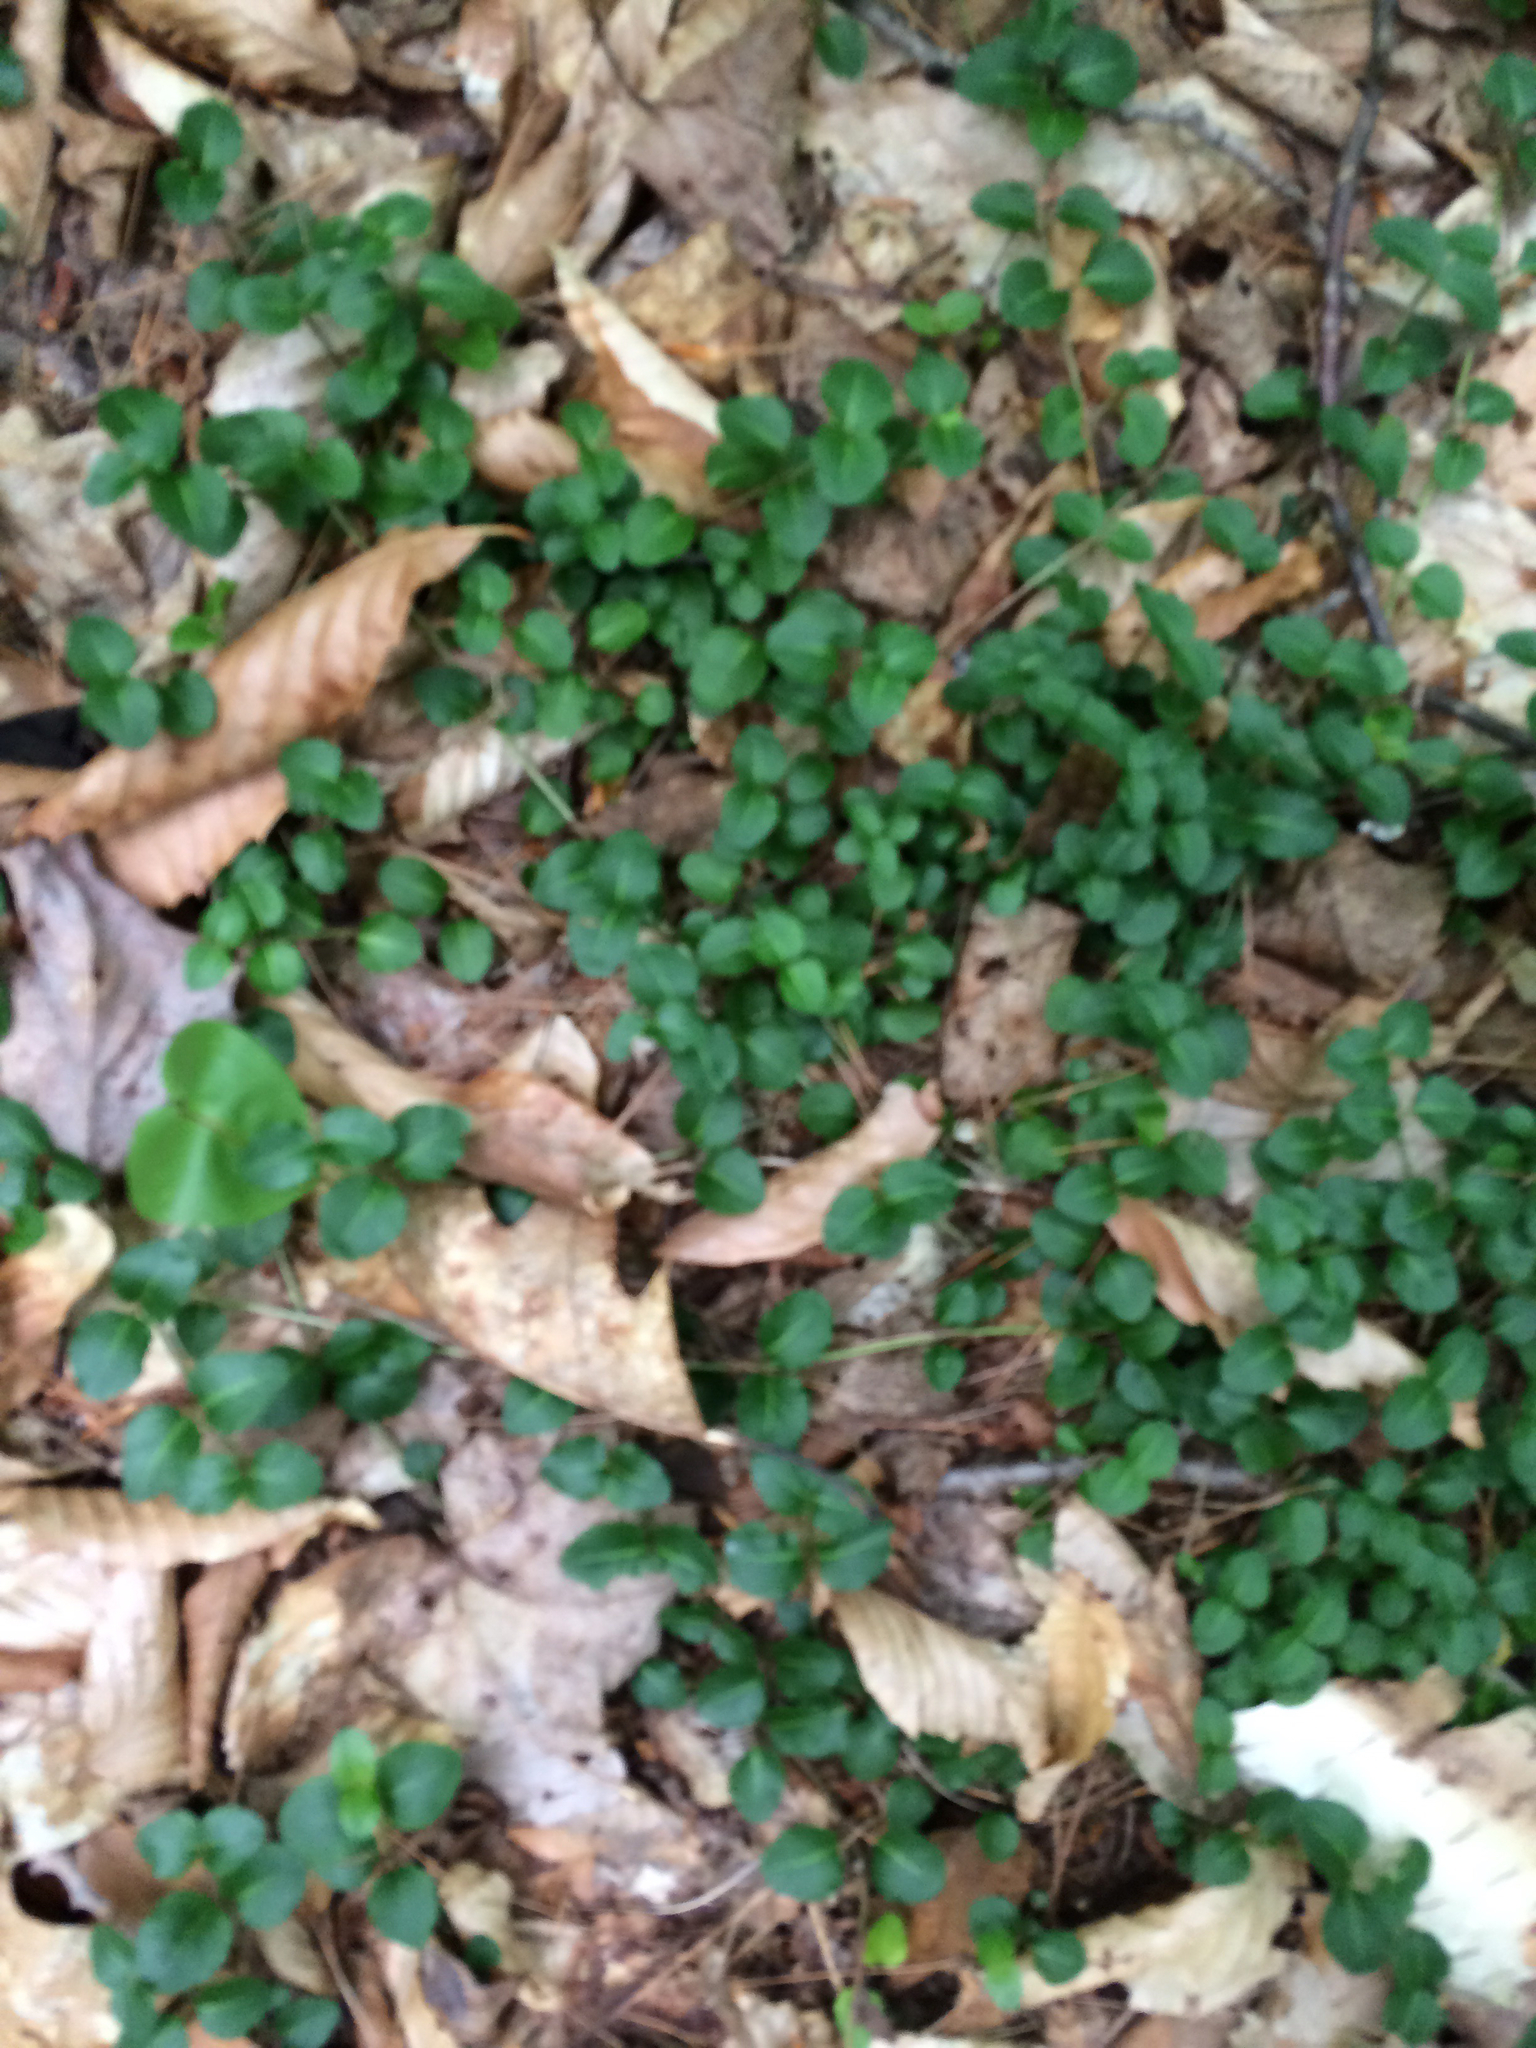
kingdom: Plantae
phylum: Tracheophyta
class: Magnoliopsida
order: Gentianales
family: Rubiaceae
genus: Mitchella
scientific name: Mitchella repens
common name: Partridge-berry
